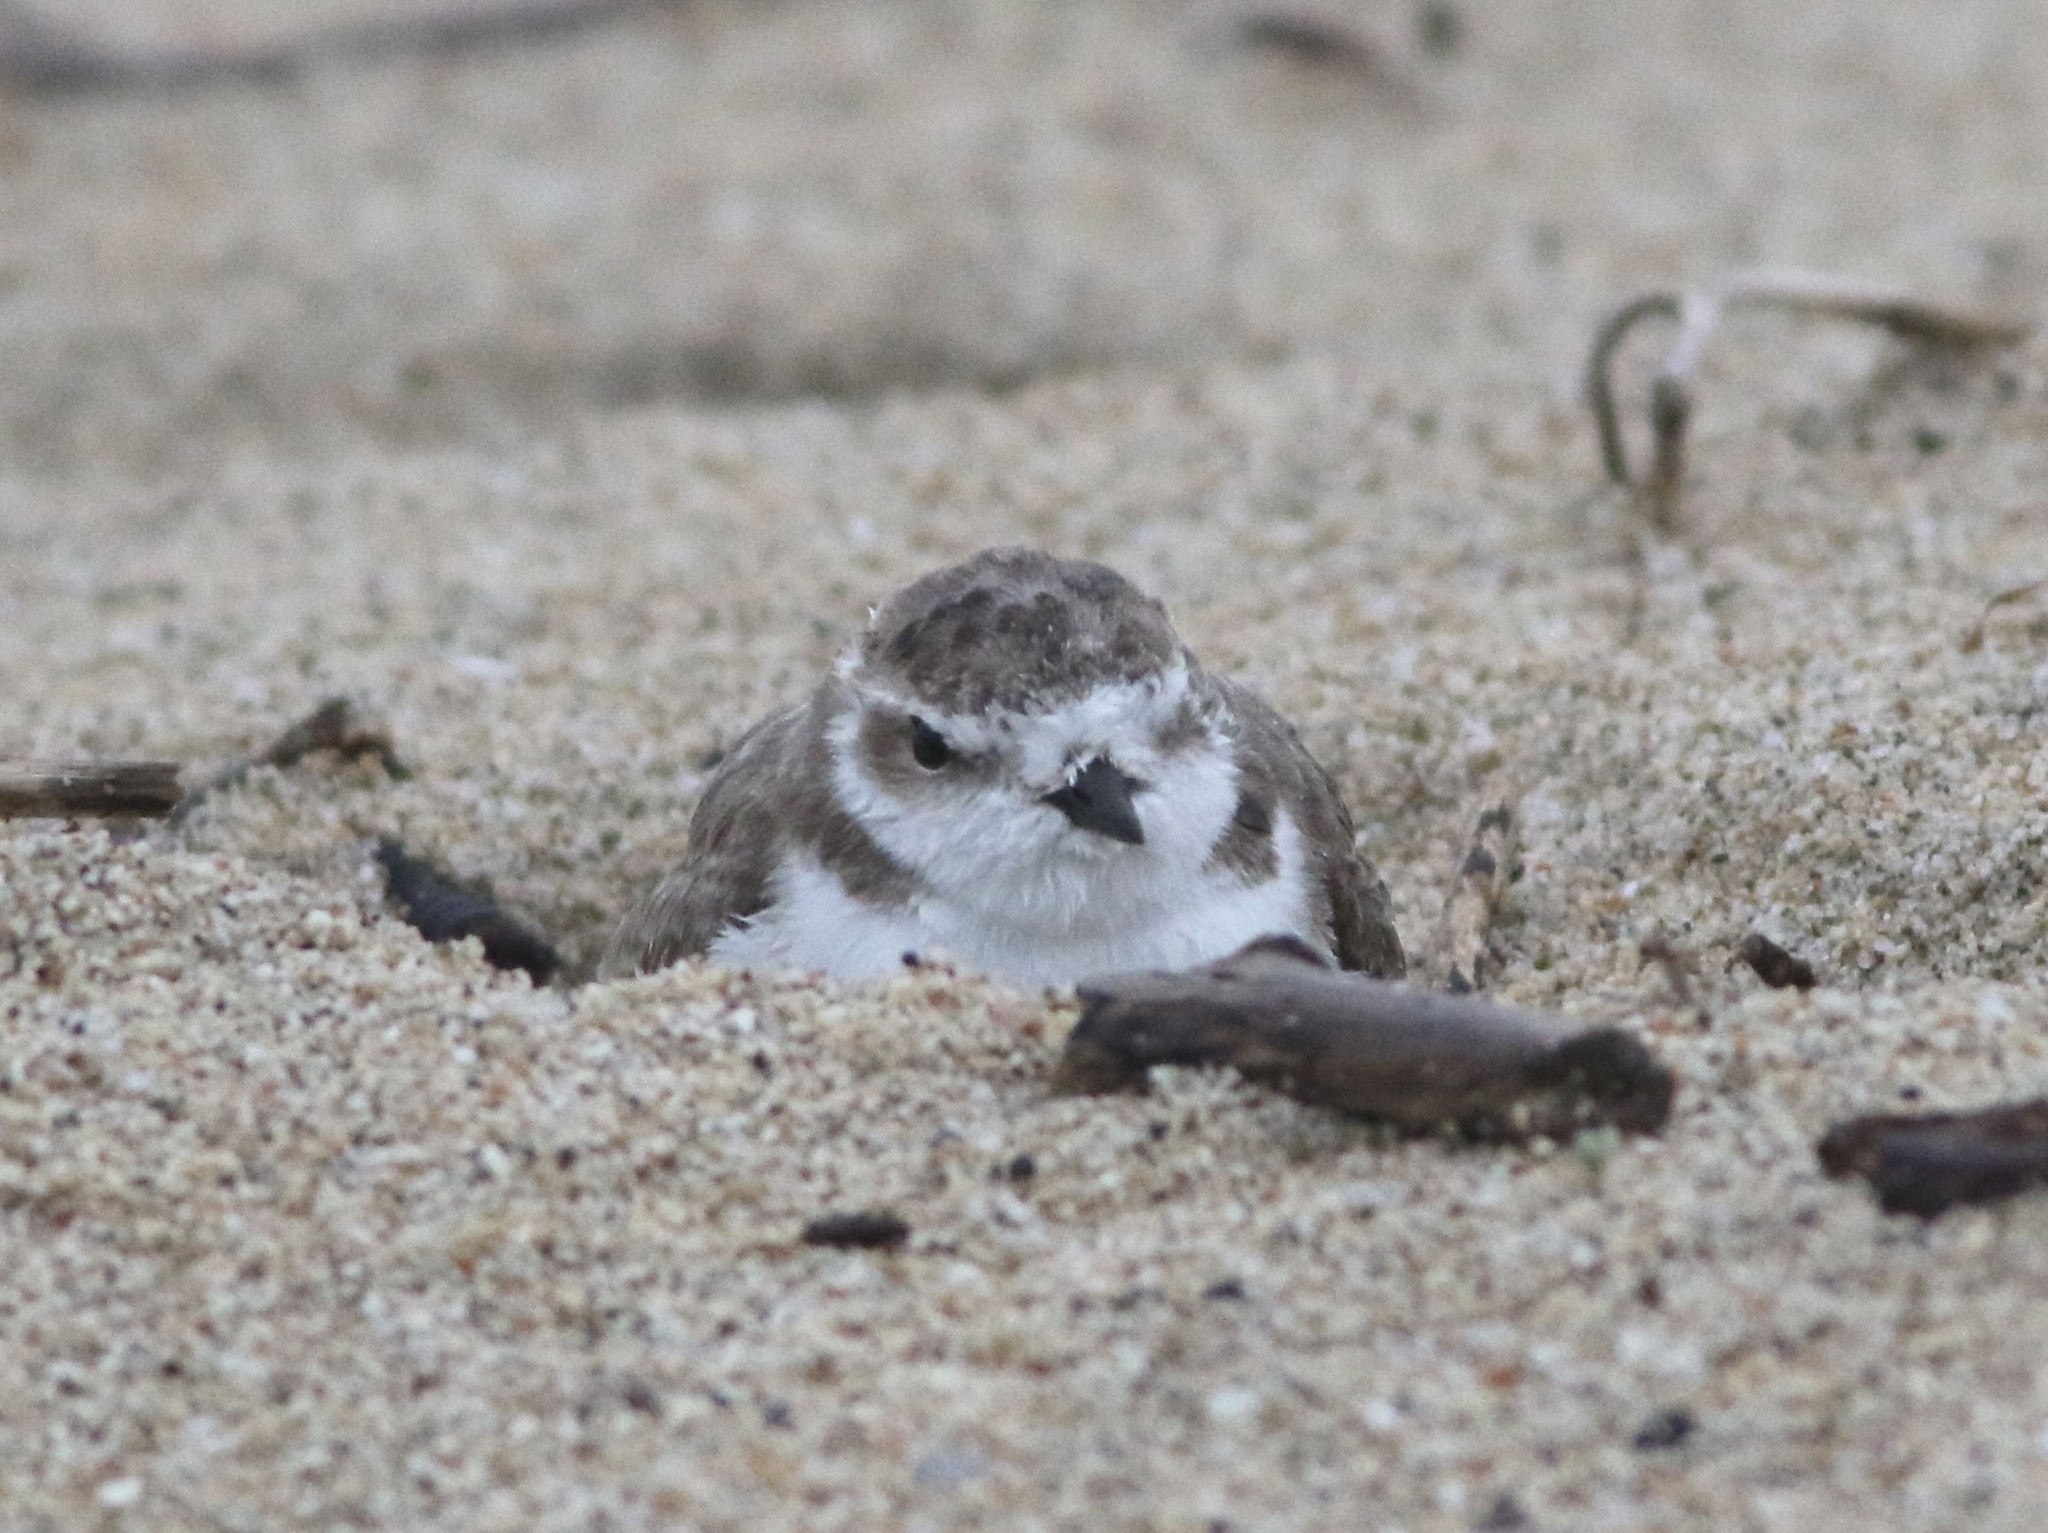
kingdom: Animalia
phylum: Chordata
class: Aves
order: Charadriiformes
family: Charadriidae
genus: Anarhynchus
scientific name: Anarhynchus
